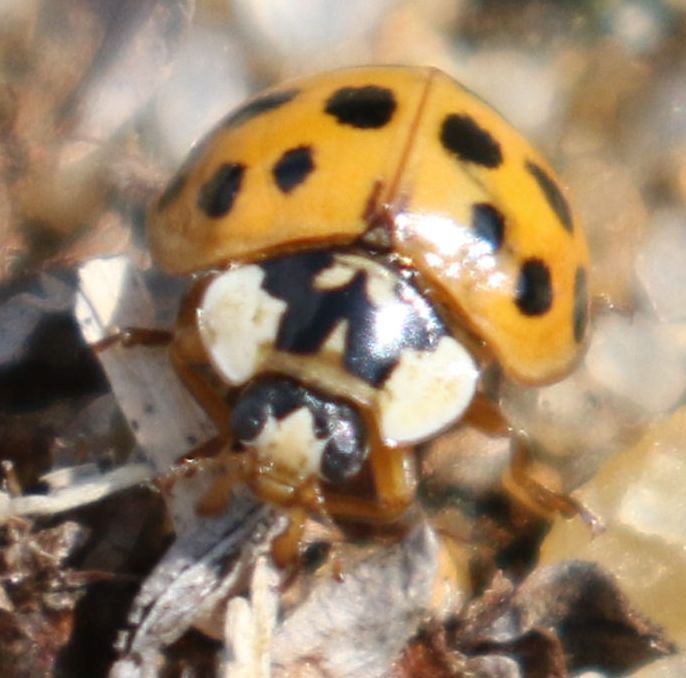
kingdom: Animalia
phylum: Arthropoda
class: Insecta
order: Coleoptera
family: Coccinellidae
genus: Harmonia
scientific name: Harmonia axyridis
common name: Harlequin ladybird
